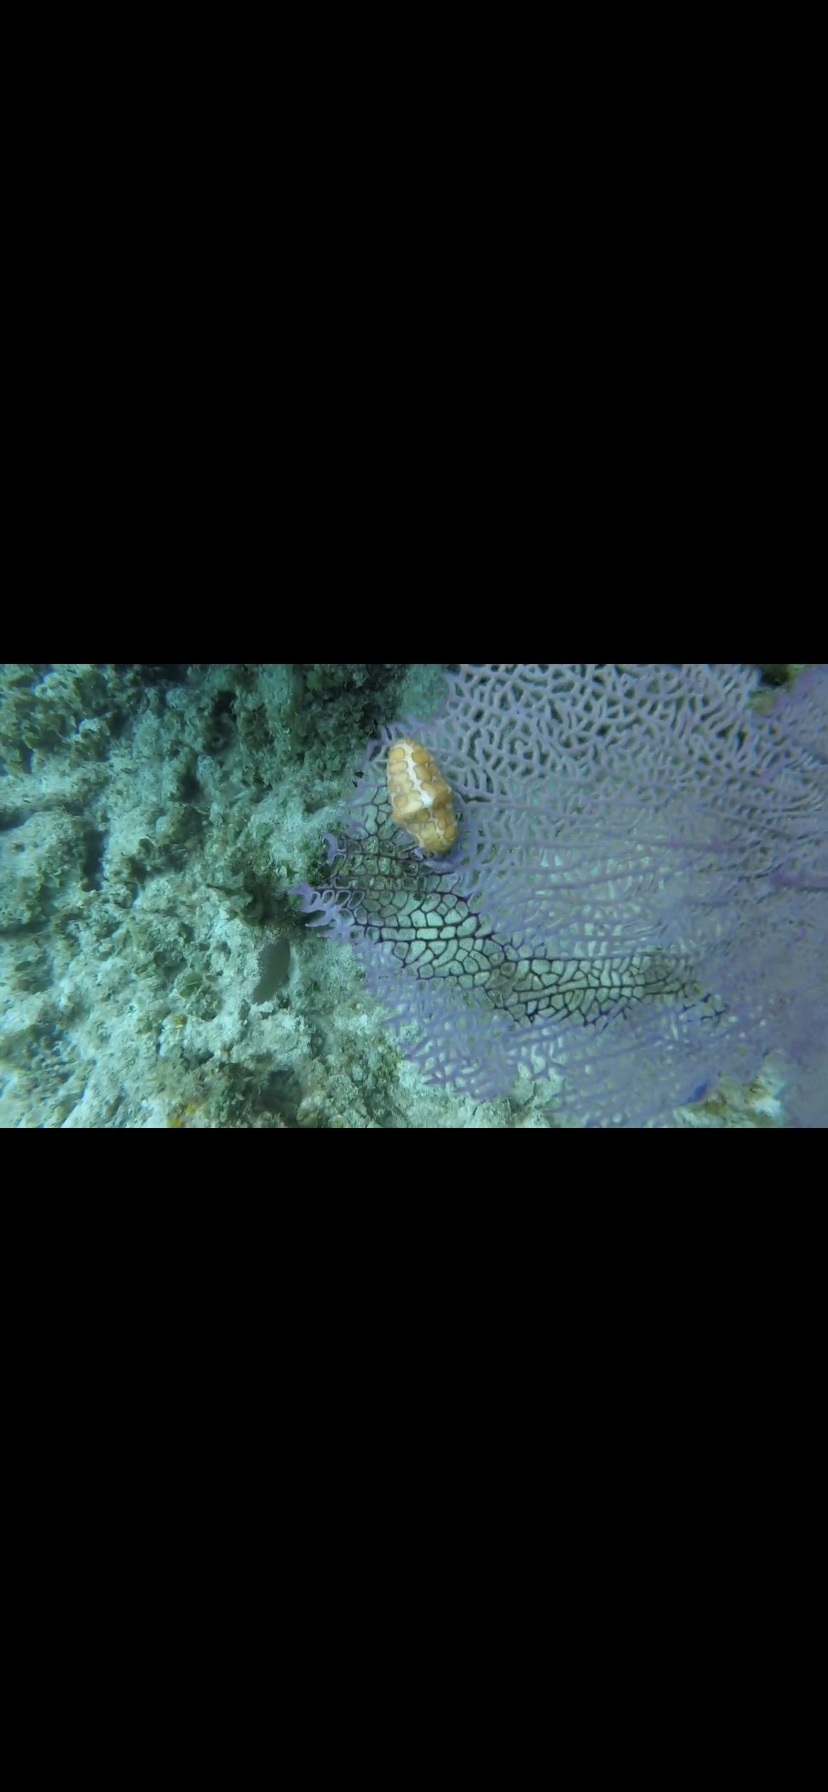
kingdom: Animalia
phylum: Mollusca
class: Gastropoda
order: Littorinimorpha
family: Ovulidae
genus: Cyphoma
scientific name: Cyphoma gibbosum
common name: Flamingo tongue
